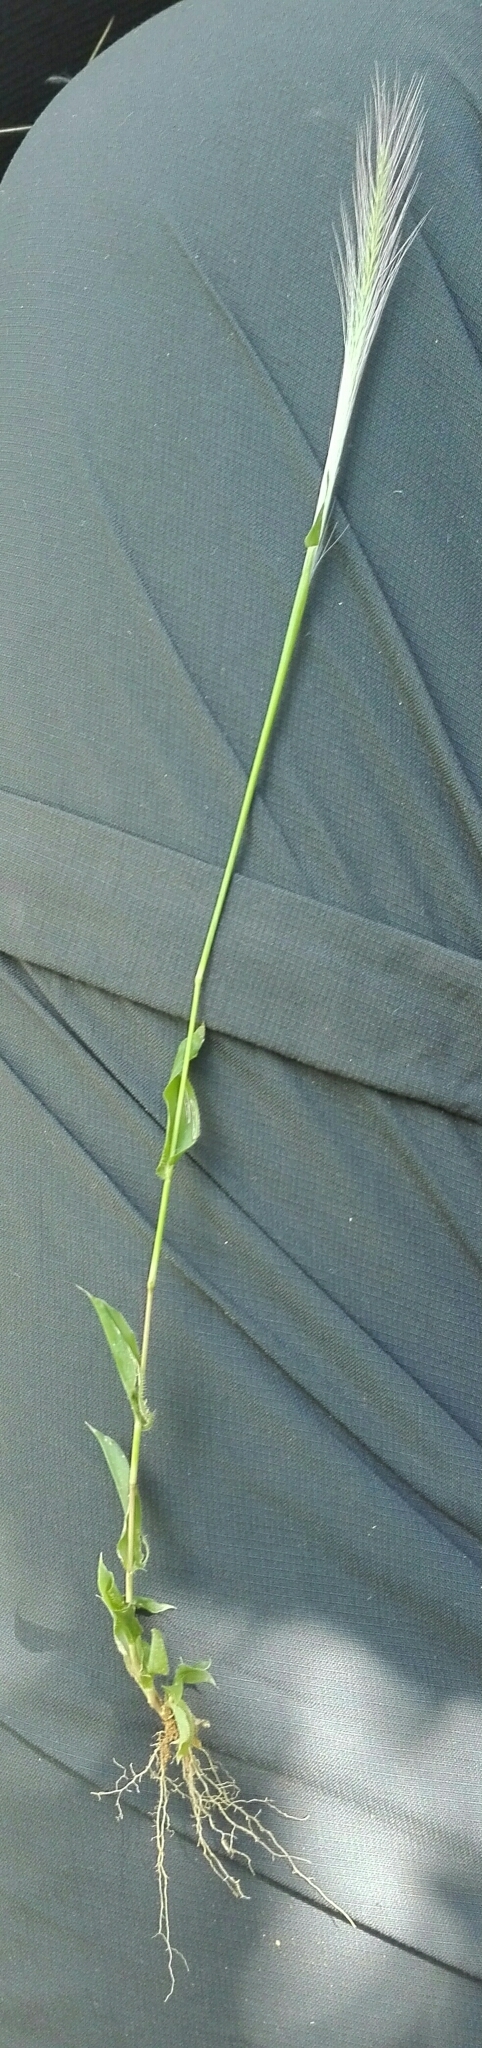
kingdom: Plantae
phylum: Tracheophyta
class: Liliopsida
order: Poales
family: Poaceae
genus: Perotis
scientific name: Perotis patens
